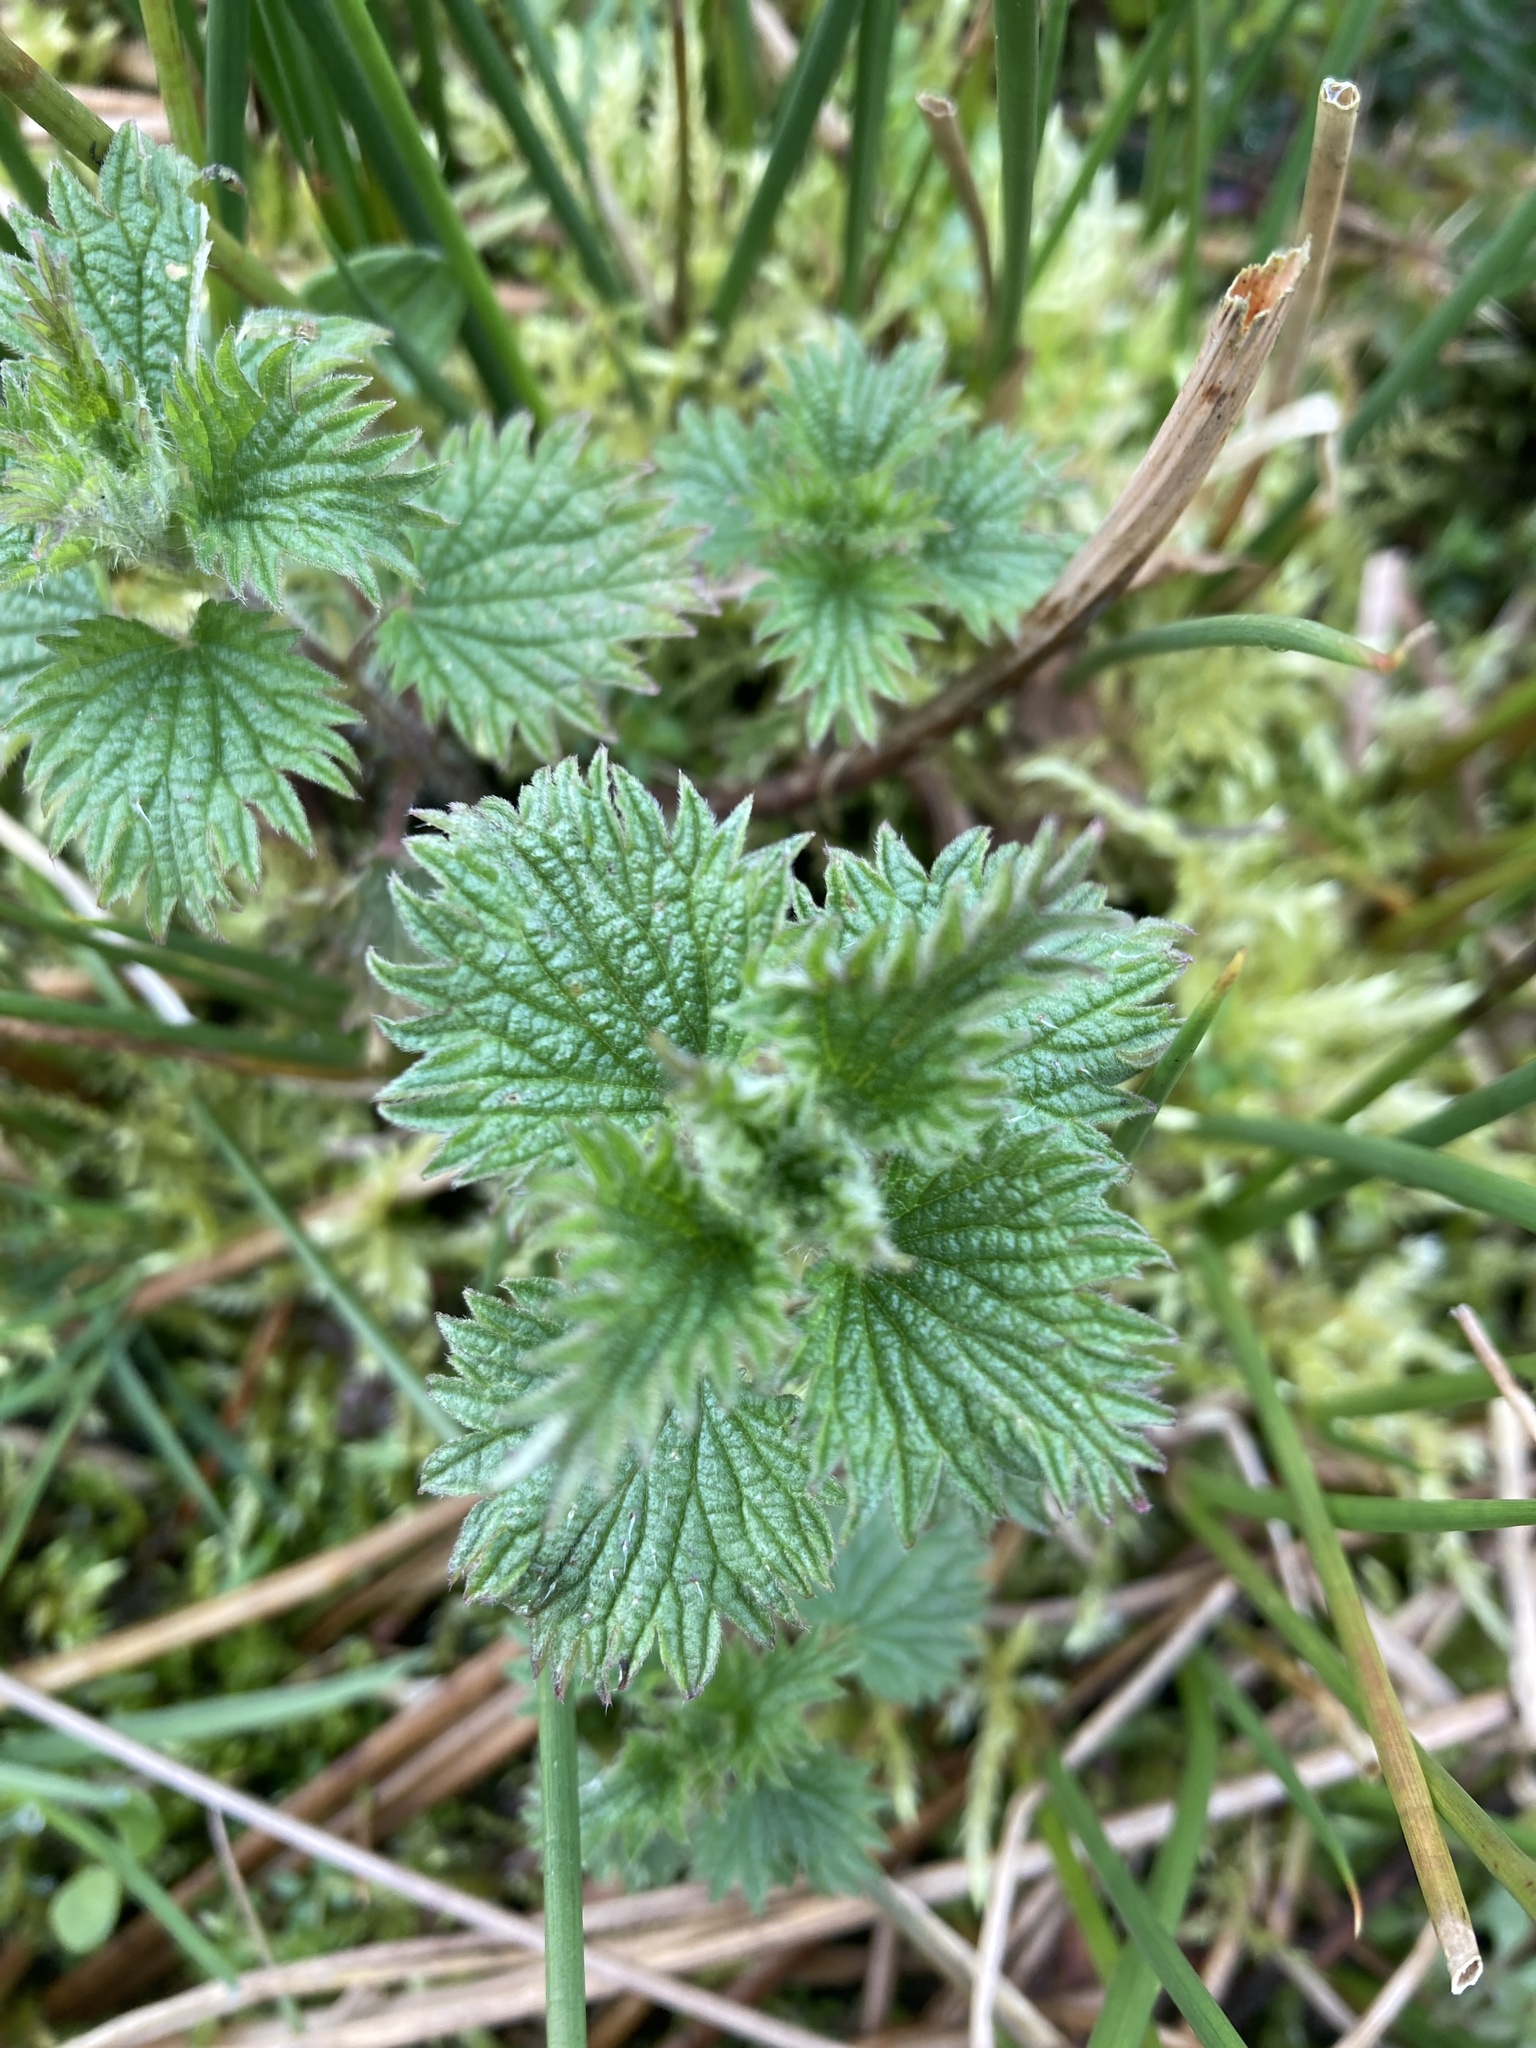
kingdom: Plantae
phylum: Tracheophyta
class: Magnoliopsida
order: Rosales
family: Urticaceae
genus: Urtica
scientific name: Urtica dioica
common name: Common nettle
